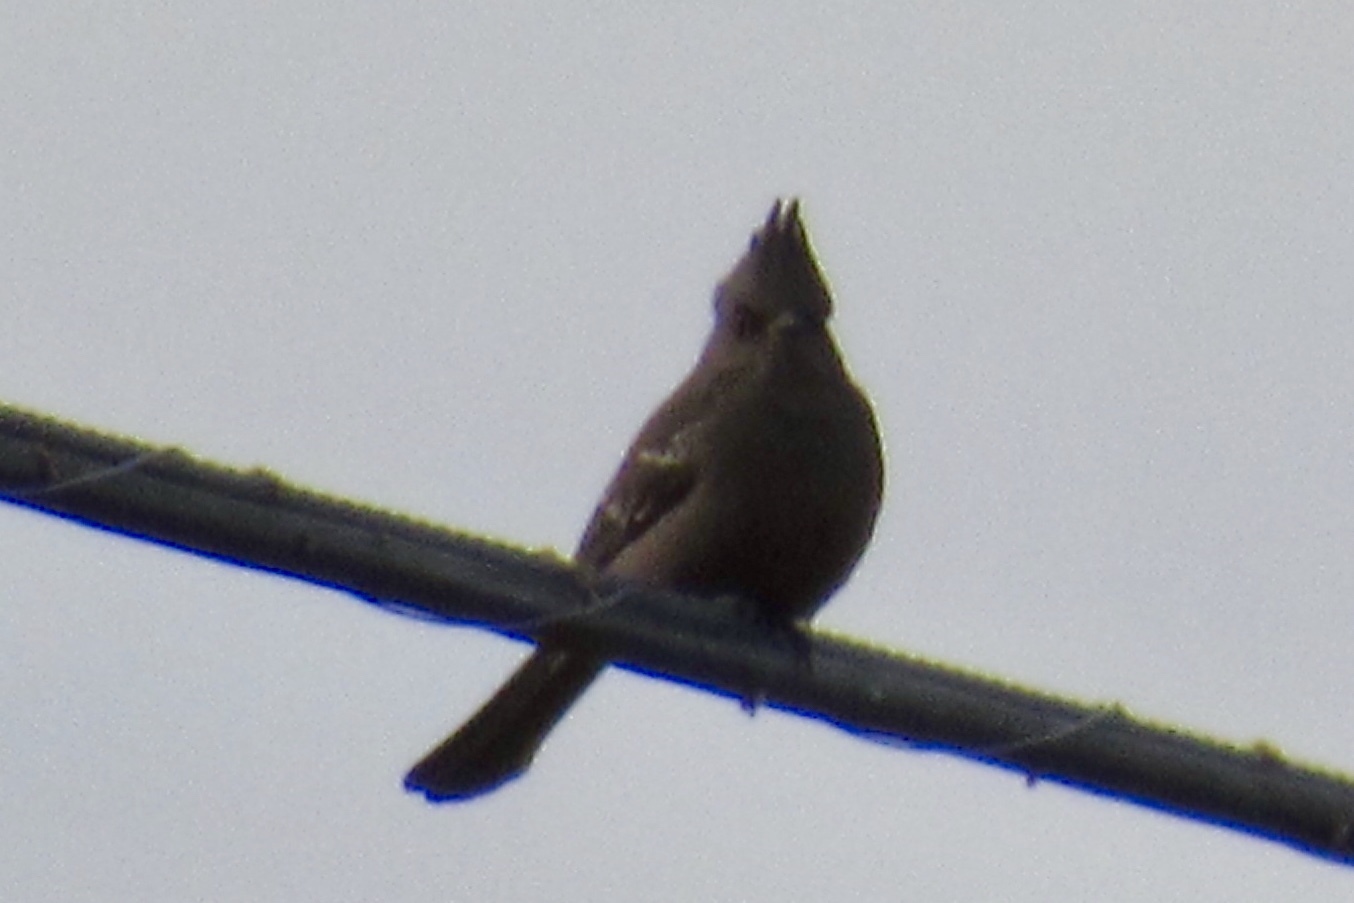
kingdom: Animalia
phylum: Chordata
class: Aves
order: Passeriformes
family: Ptilogonatidae
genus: Phainopepla
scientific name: Phainopepla nitens
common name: Phainopepla
